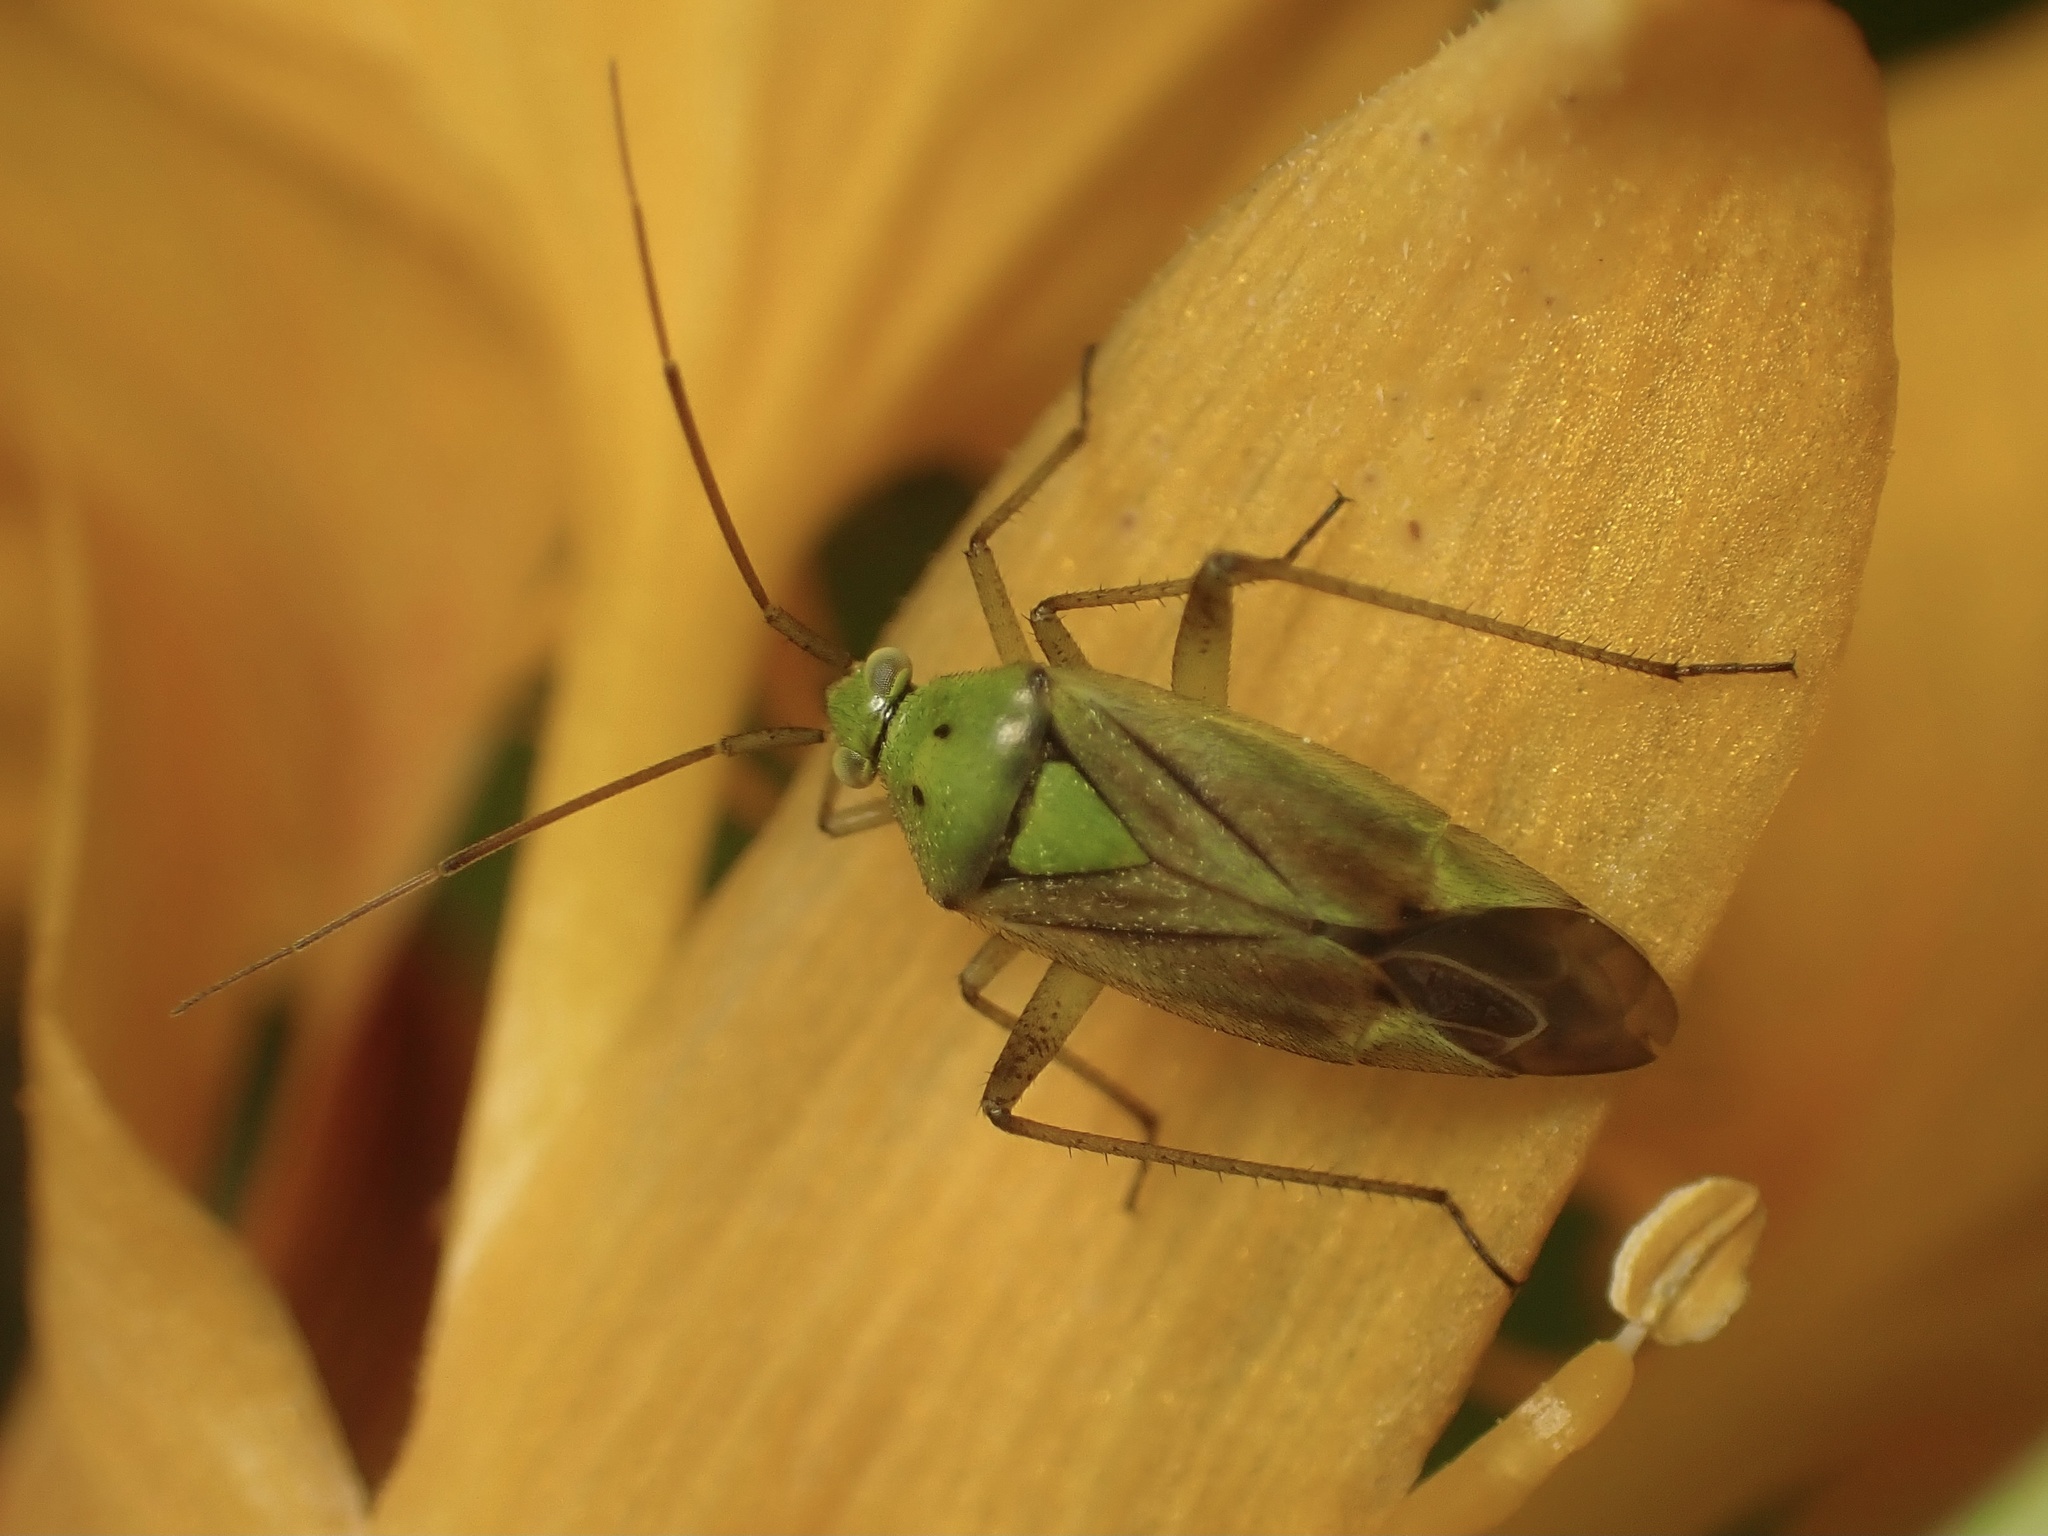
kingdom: Animalia
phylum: Arthropoda
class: Insecta
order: Hemiptera
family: Miridae
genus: Closterotomus
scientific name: Closterotomus norvegicus
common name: Plant bug
